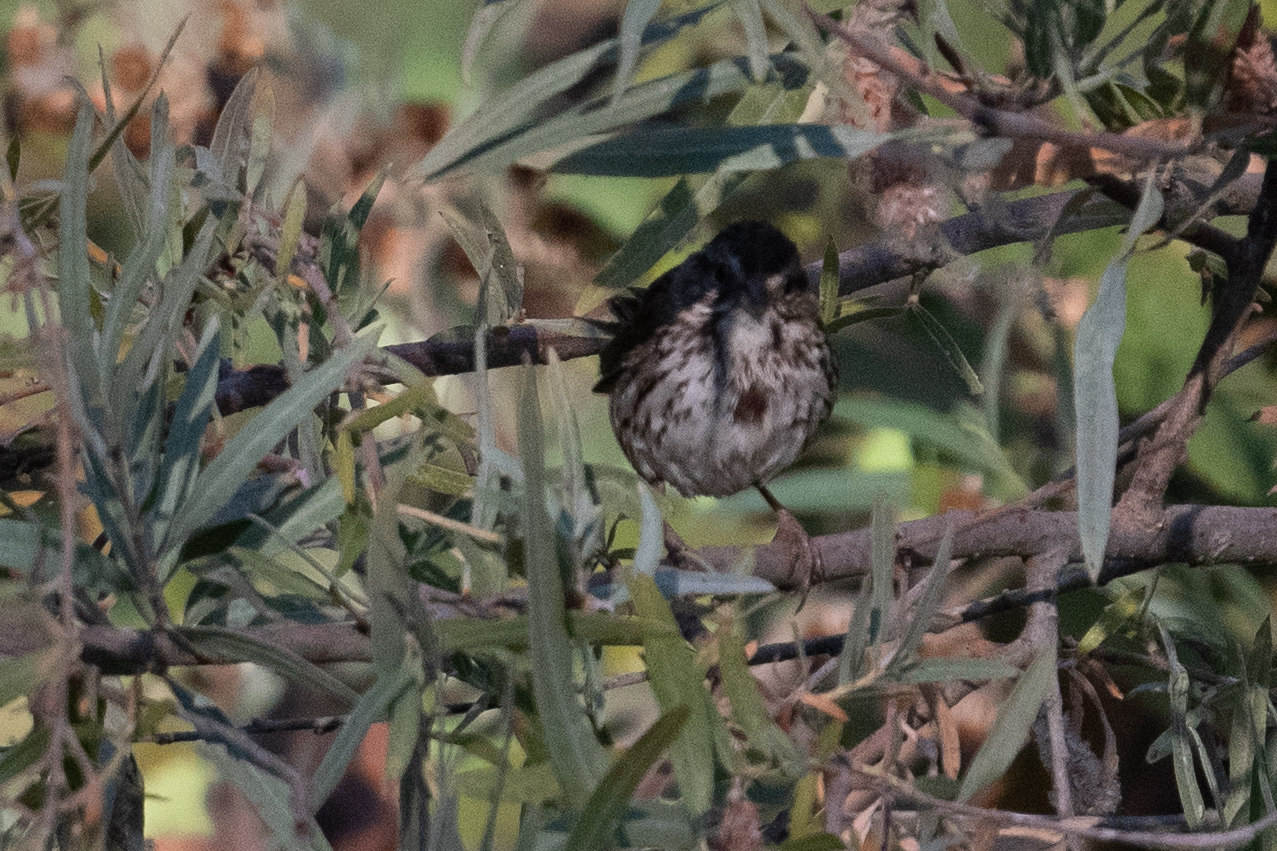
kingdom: Animalia
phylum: Chordata
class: Aves
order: Passeriformes
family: Passerellidae
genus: Melospiza
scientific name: Melospiza melodia
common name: Song sparrow
